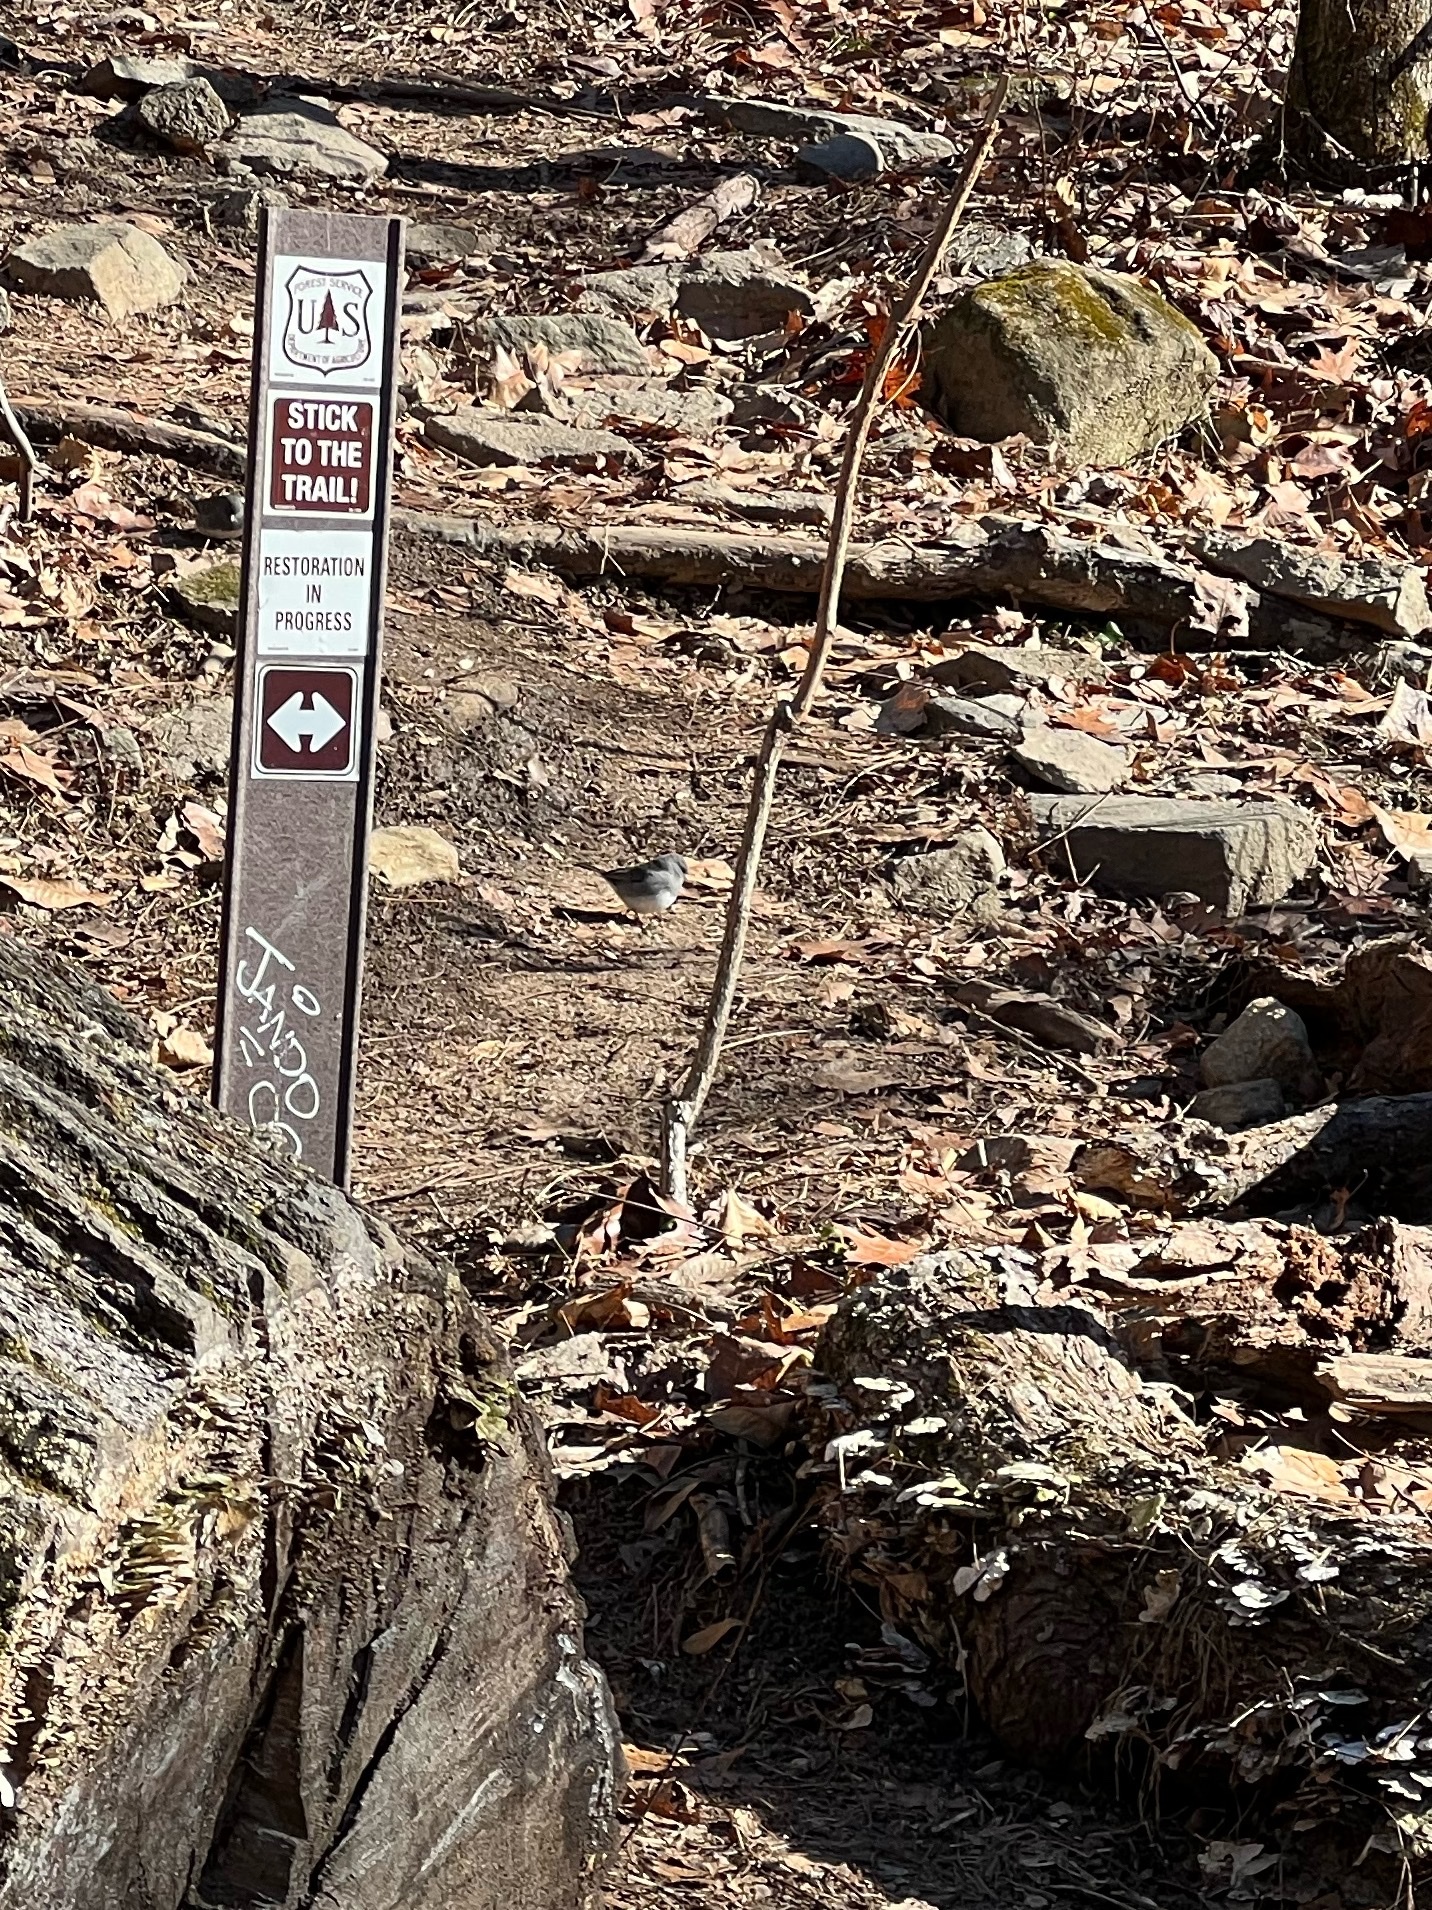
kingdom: Animalia
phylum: Chordata
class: Aves
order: Passeriformes
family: Passerellidae
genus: Junco
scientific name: Junco hyemalis
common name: Dark-eyed junco
